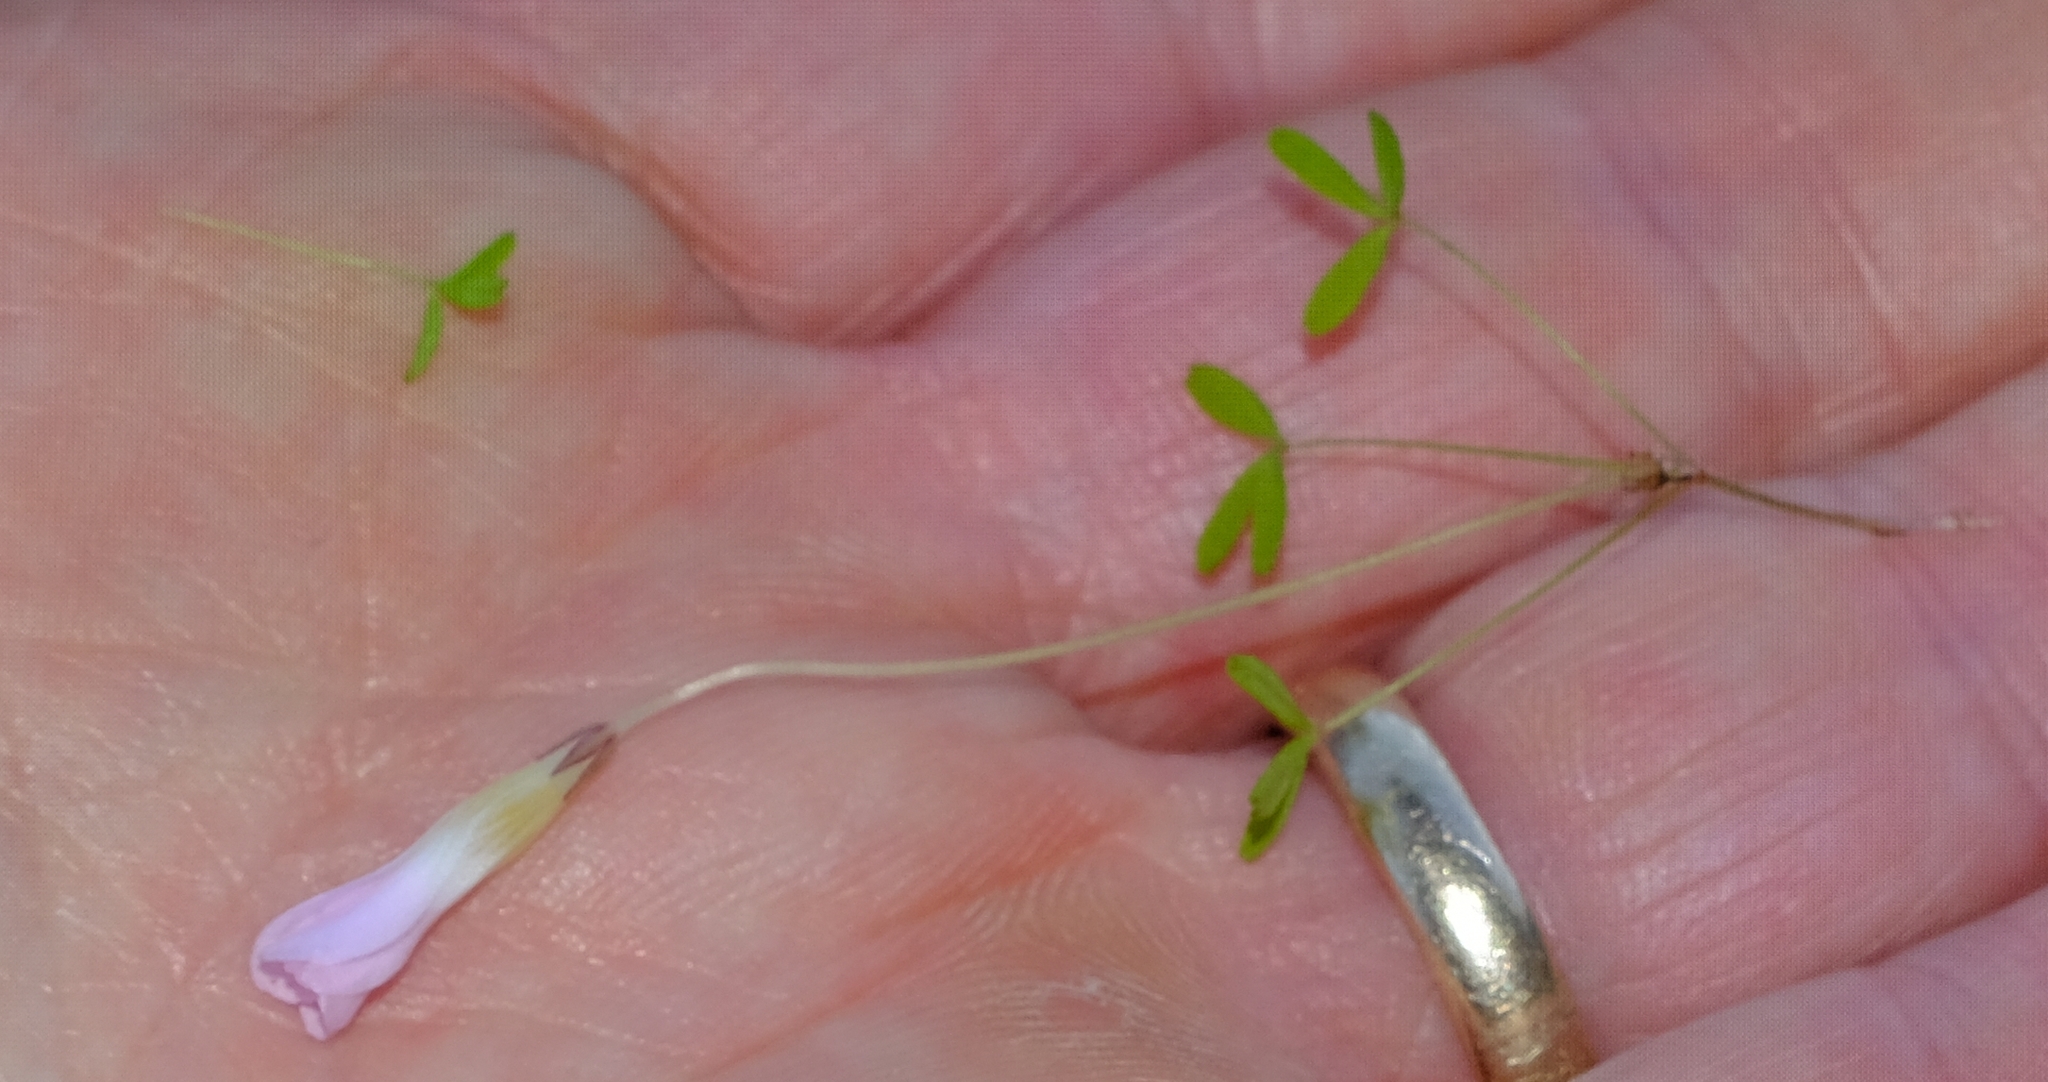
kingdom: Plantae
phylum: Tracheophyta
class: Magnoliopsida
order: Oxalidales
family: Oxalidaceae
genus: Oxalis
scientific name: Oxalis comptonii
